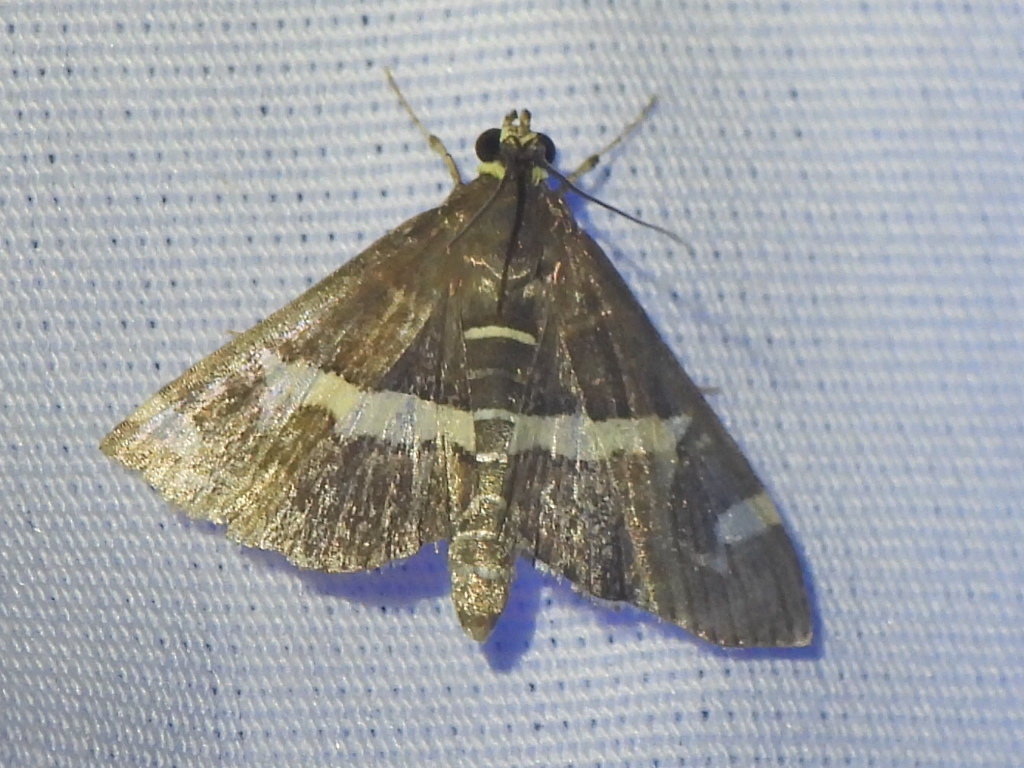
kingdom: Animalia
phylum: Arthropoda
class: Insecta
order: Lepidoptera
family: Crambidae
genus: Spoladea
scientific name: Spoladea recurvalis
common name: Beet webworm moth
